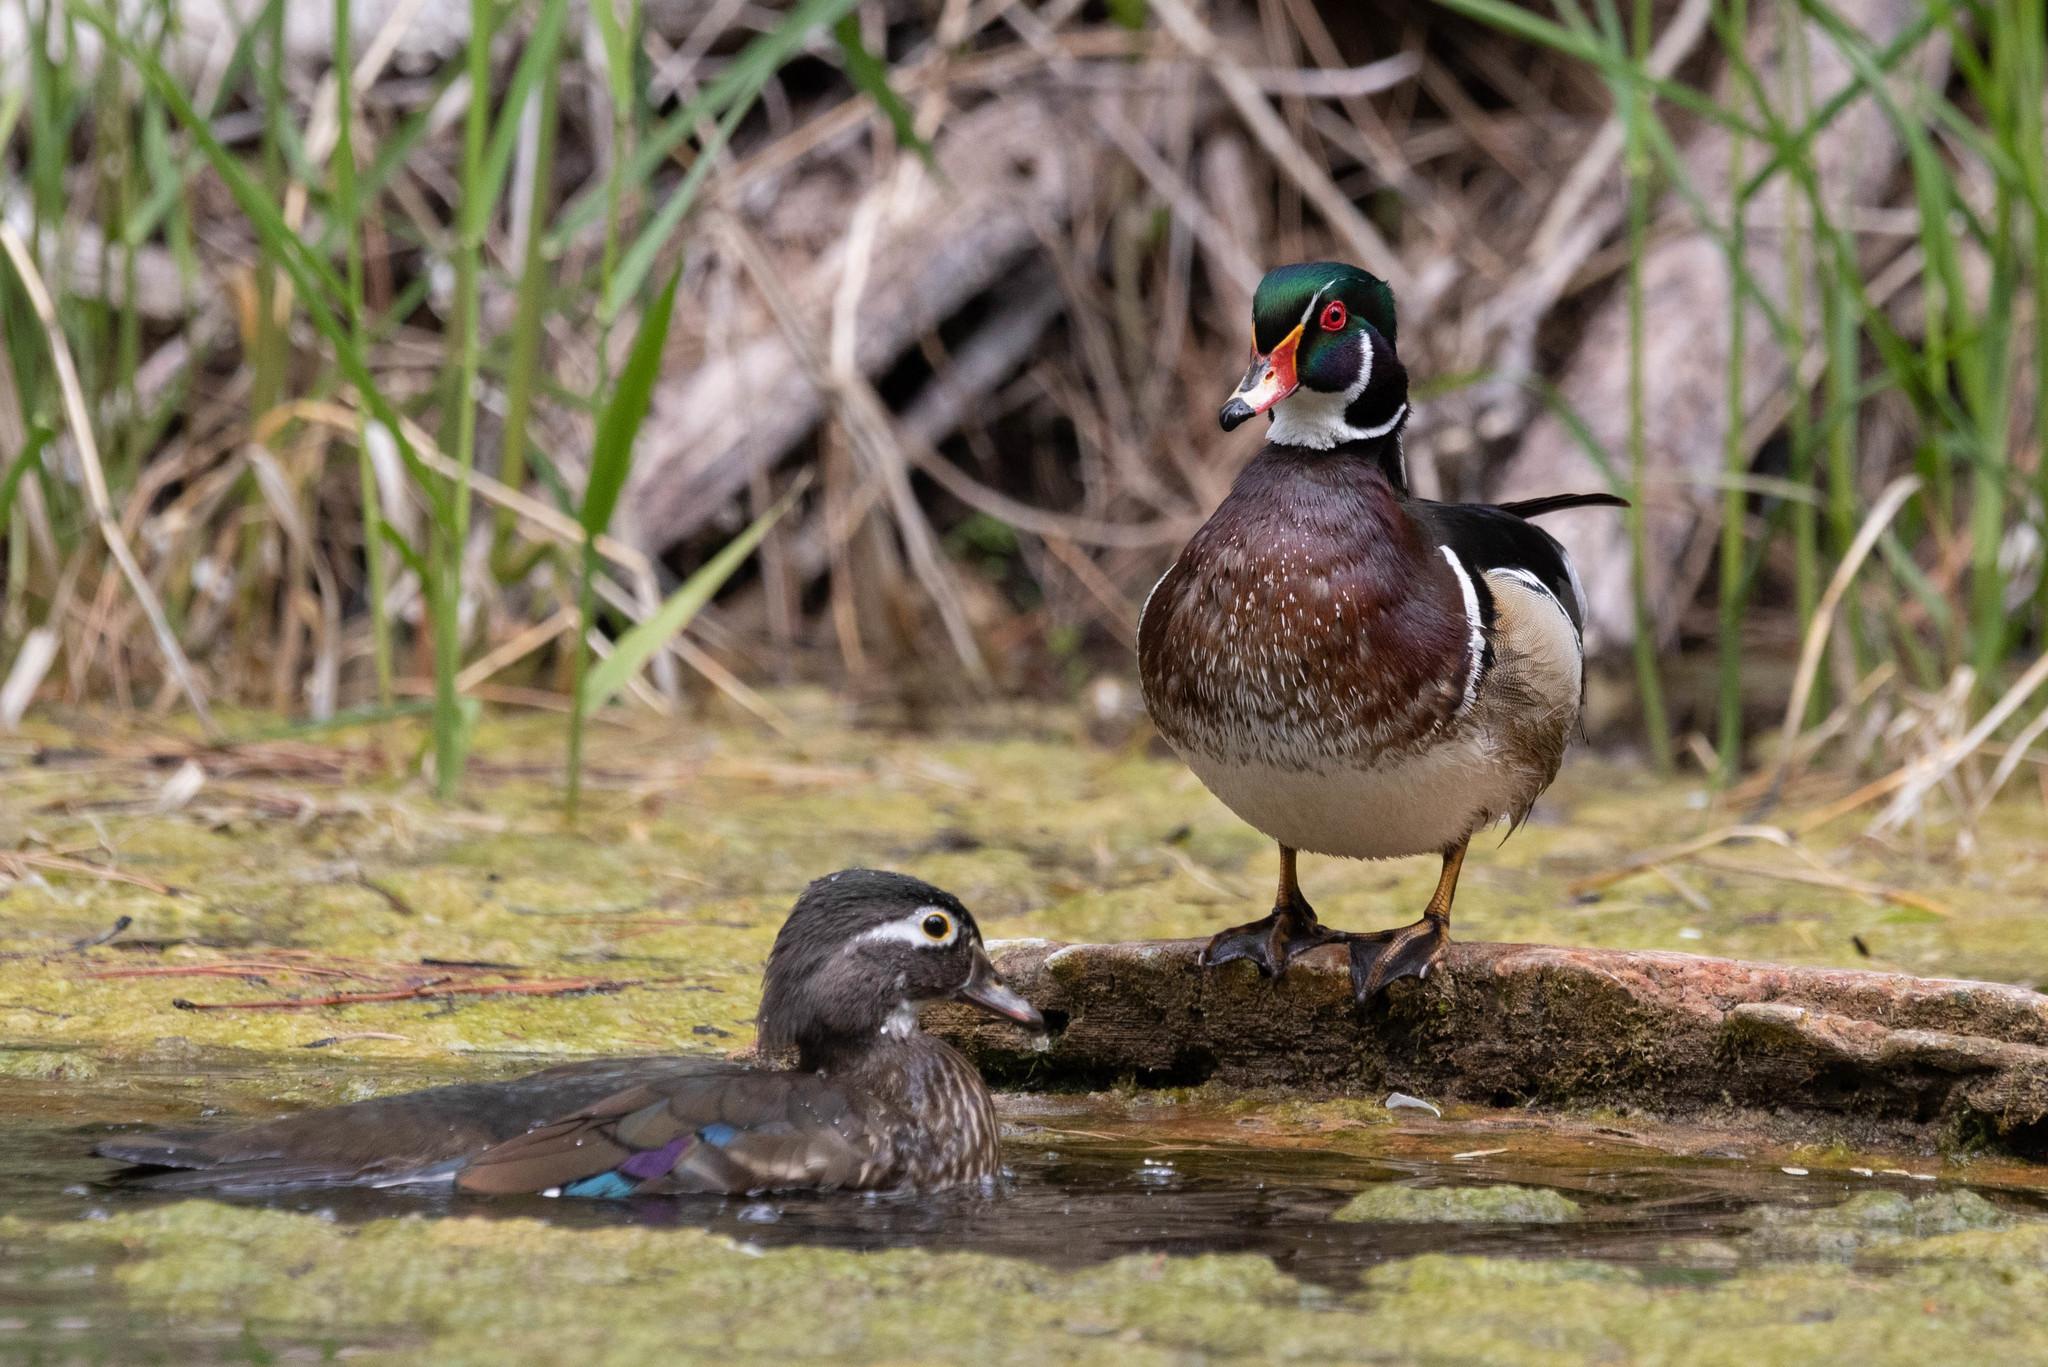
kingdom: Animalia
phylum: Chordata
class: Aves
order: Anseriformes
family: Anatidae
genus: Aix
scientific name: Aix sponsa
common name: Wood duck
